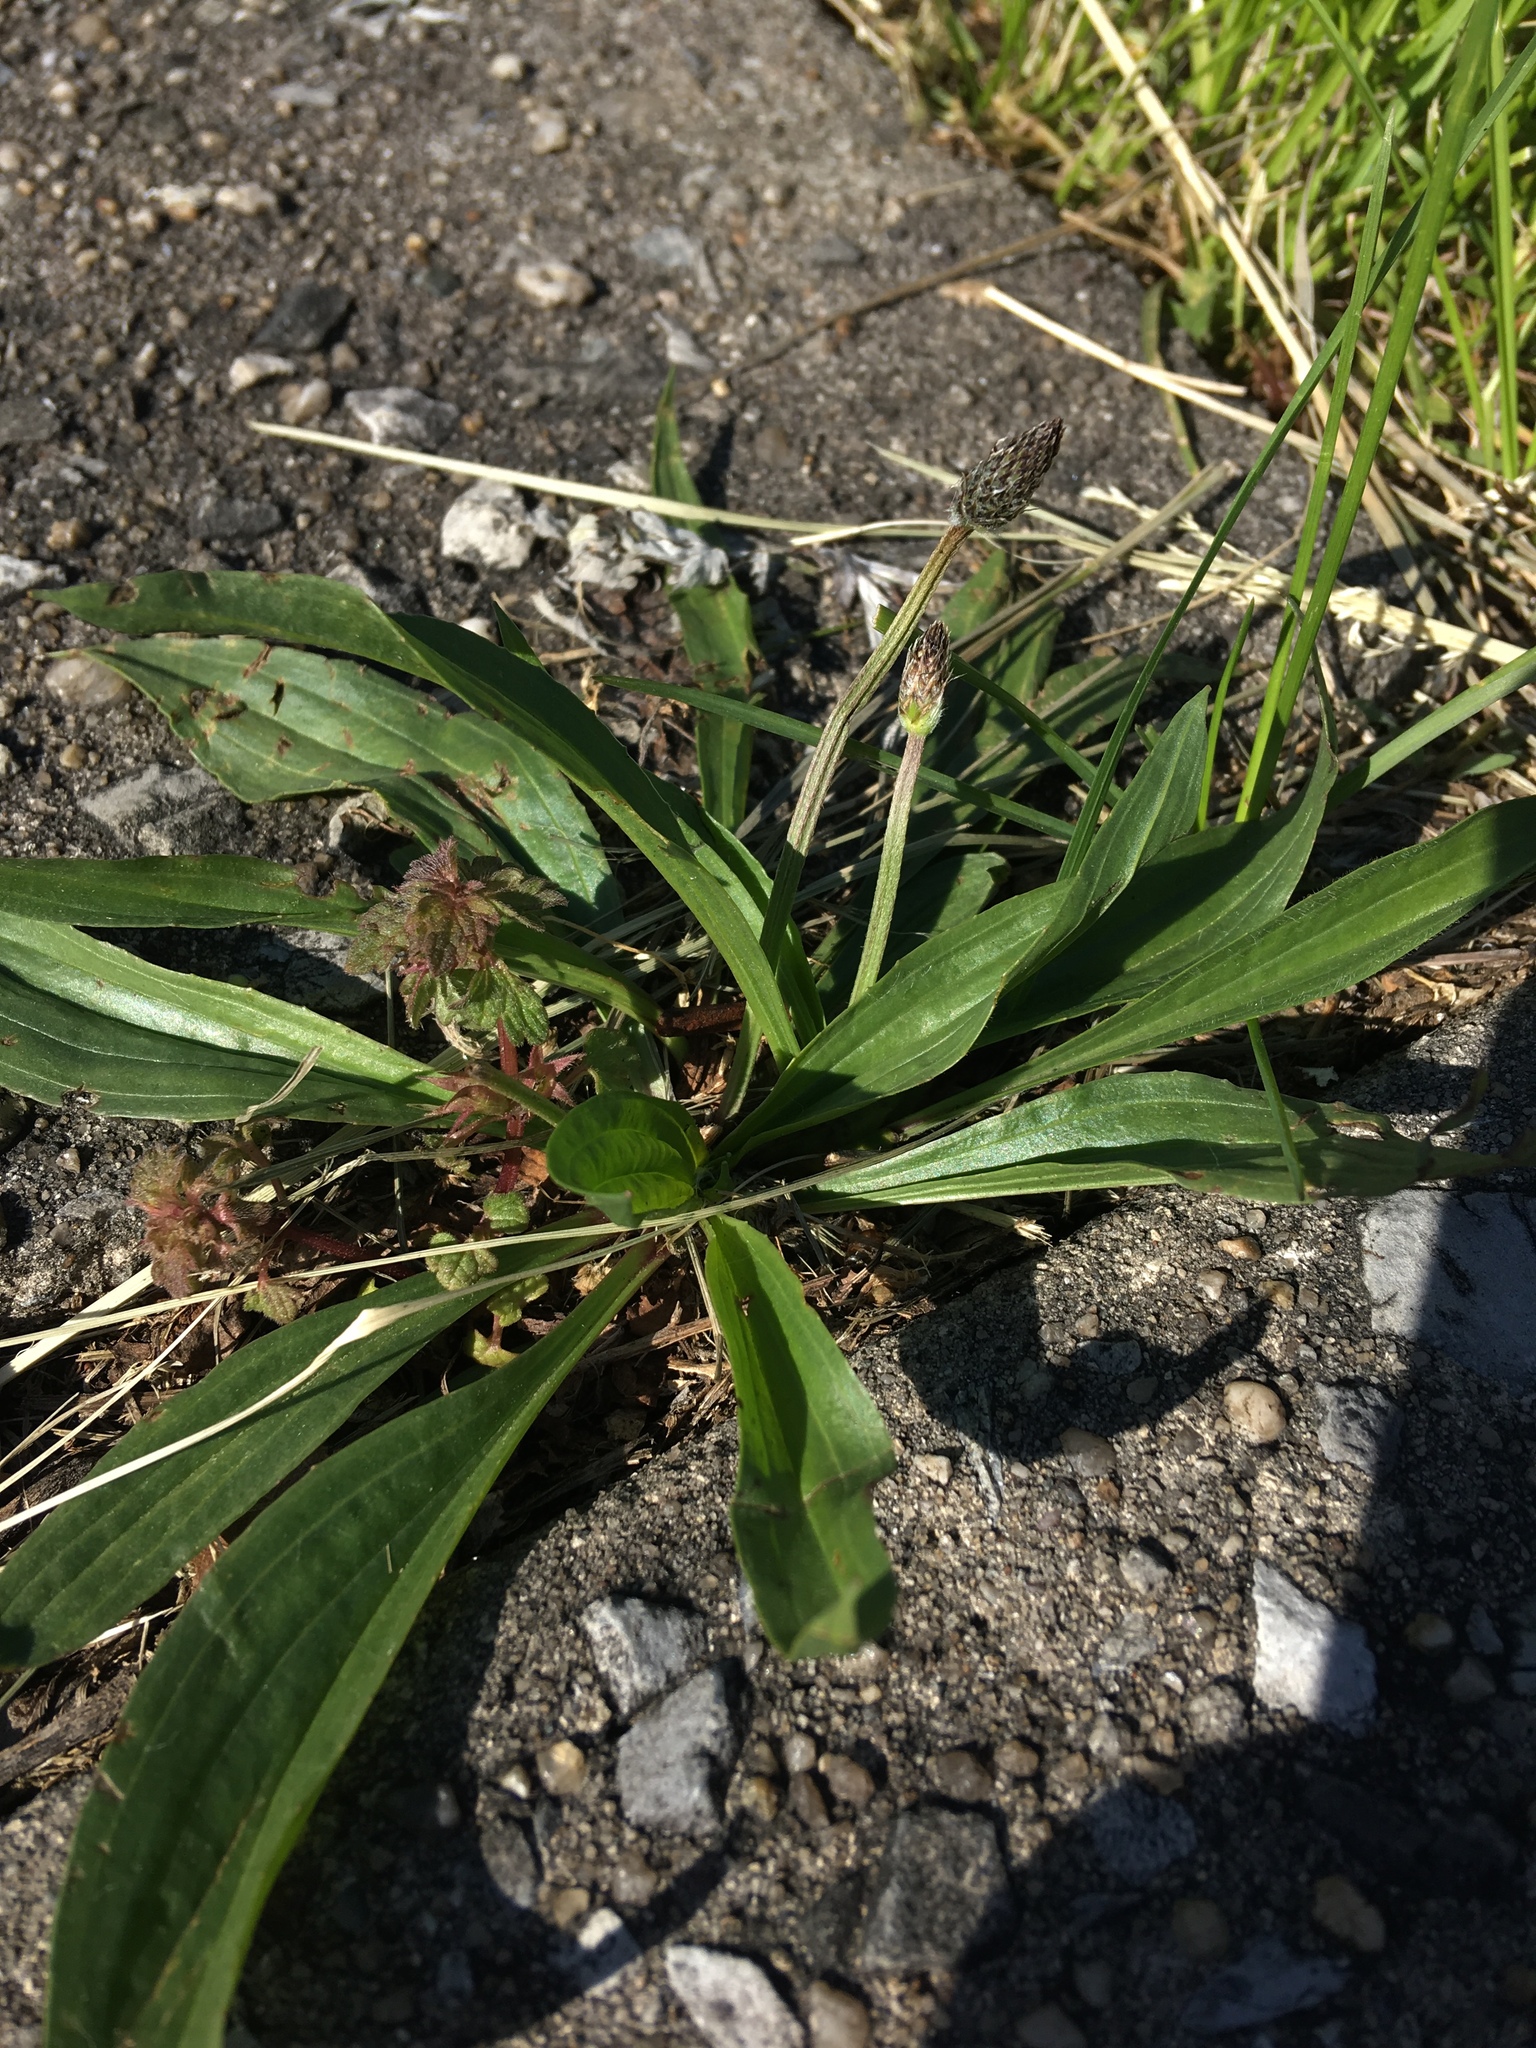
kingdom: Plantae
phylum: Tracheophyta
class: Magnoliopsida
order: Lamiales
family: Plantaginaceae
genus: Plantago
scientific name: Plantago lanceolata
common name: Ribwort plantain
